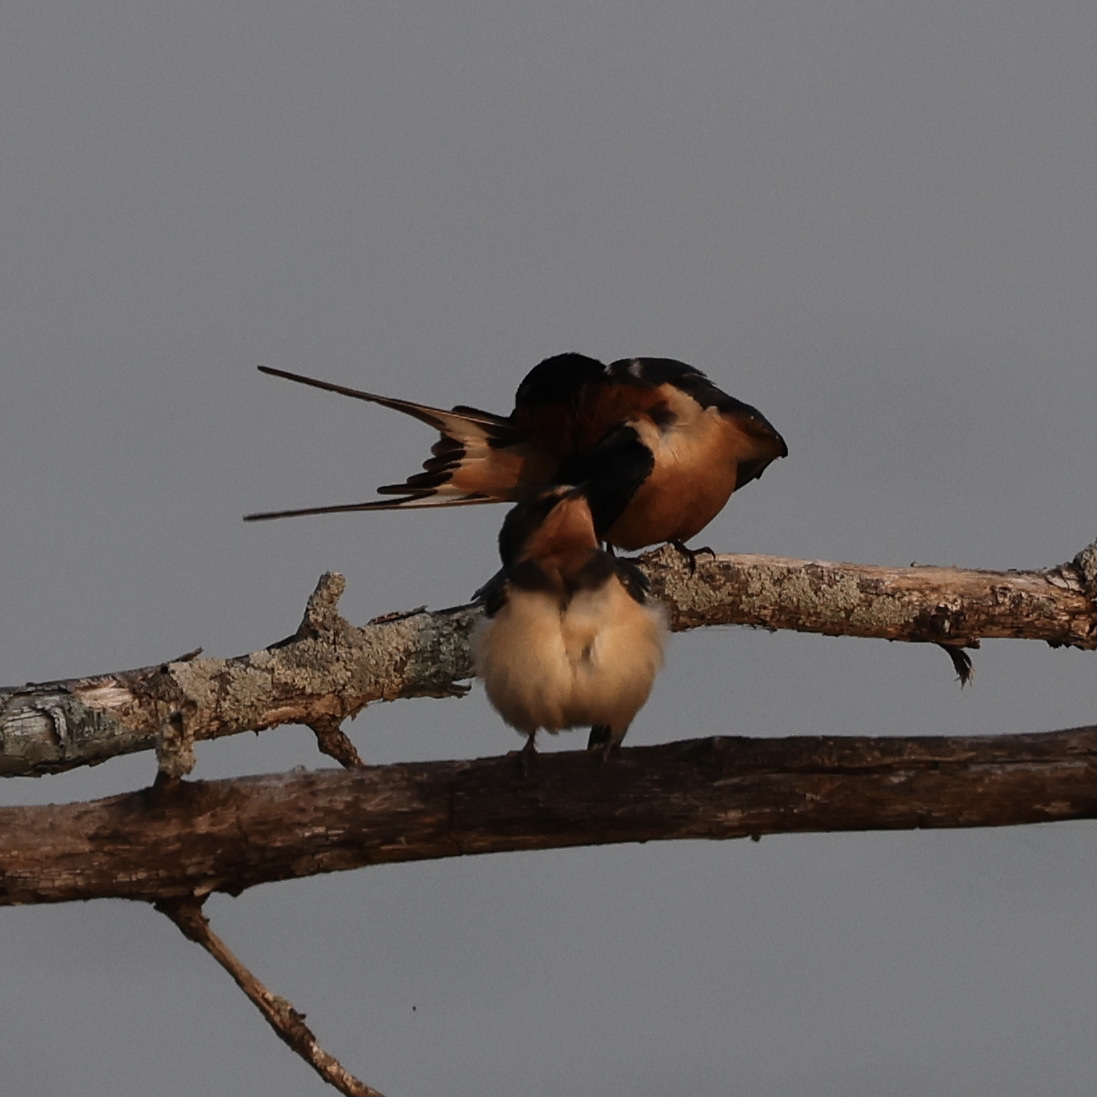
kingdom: Animalia
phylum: Chordata
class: Aves
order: Passeriformes
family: Hirundinidae
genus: Hirundo
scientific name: Hirundo rustica
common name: Barn swallow
